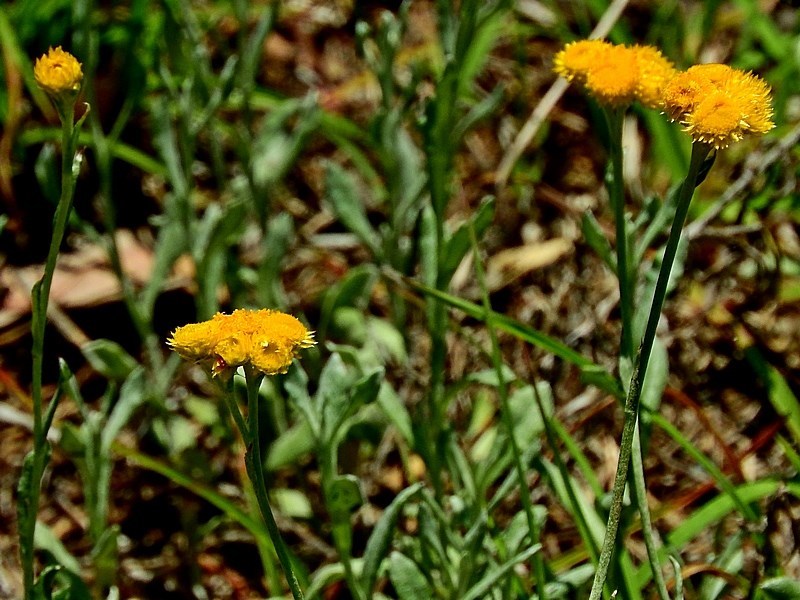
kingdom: Plantae
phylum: Tracheophyta
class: Magnoliopsida
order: Asterales
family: Asteraceae
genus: Chrysocephalum
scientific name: Chrysocephalum apiculatum
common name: Common everlasting
